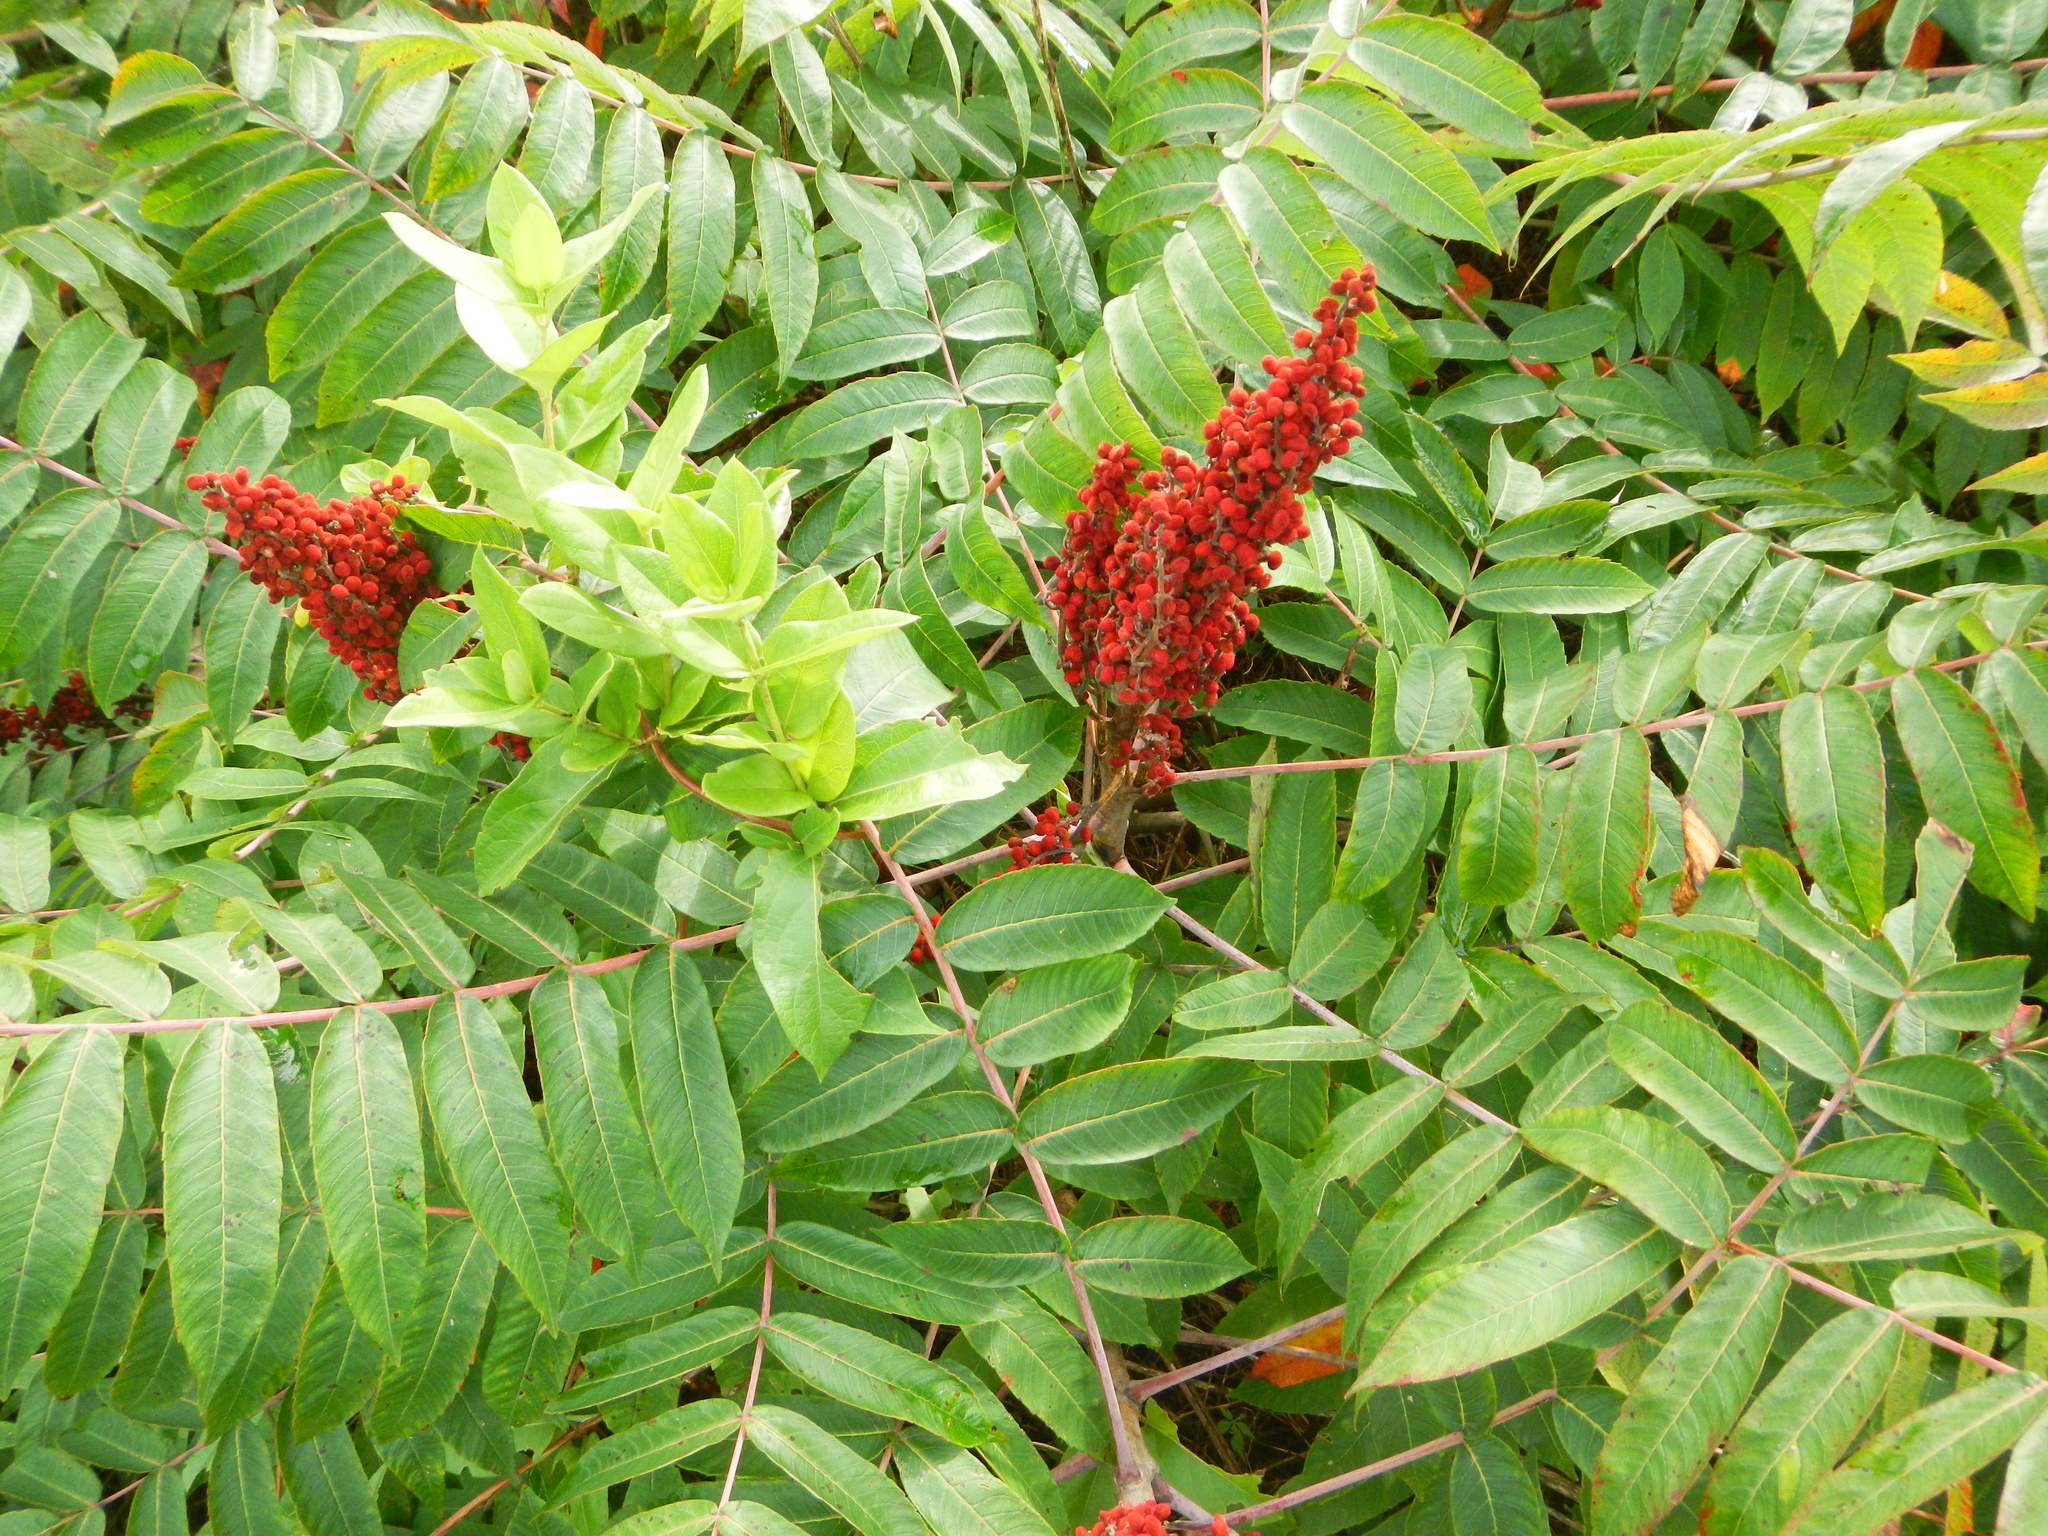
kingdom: Plantae
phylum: Tracheophyta
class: Magnoliopsida
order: Sapindales
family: Anacardiaceae
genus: Rhus
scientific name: Rhus glabra
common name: Scarlet sumac
